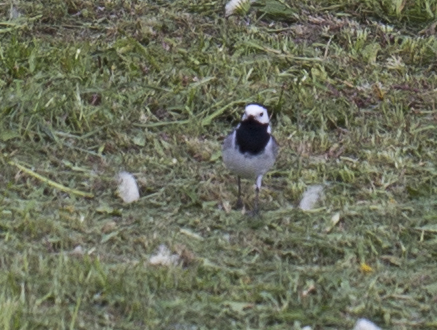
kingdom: Animalia
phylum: Chordata
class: Aves
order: Passeriformes
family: Motacillidae
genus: Motacilla
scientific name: Motacilla alba
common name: White wagtail
